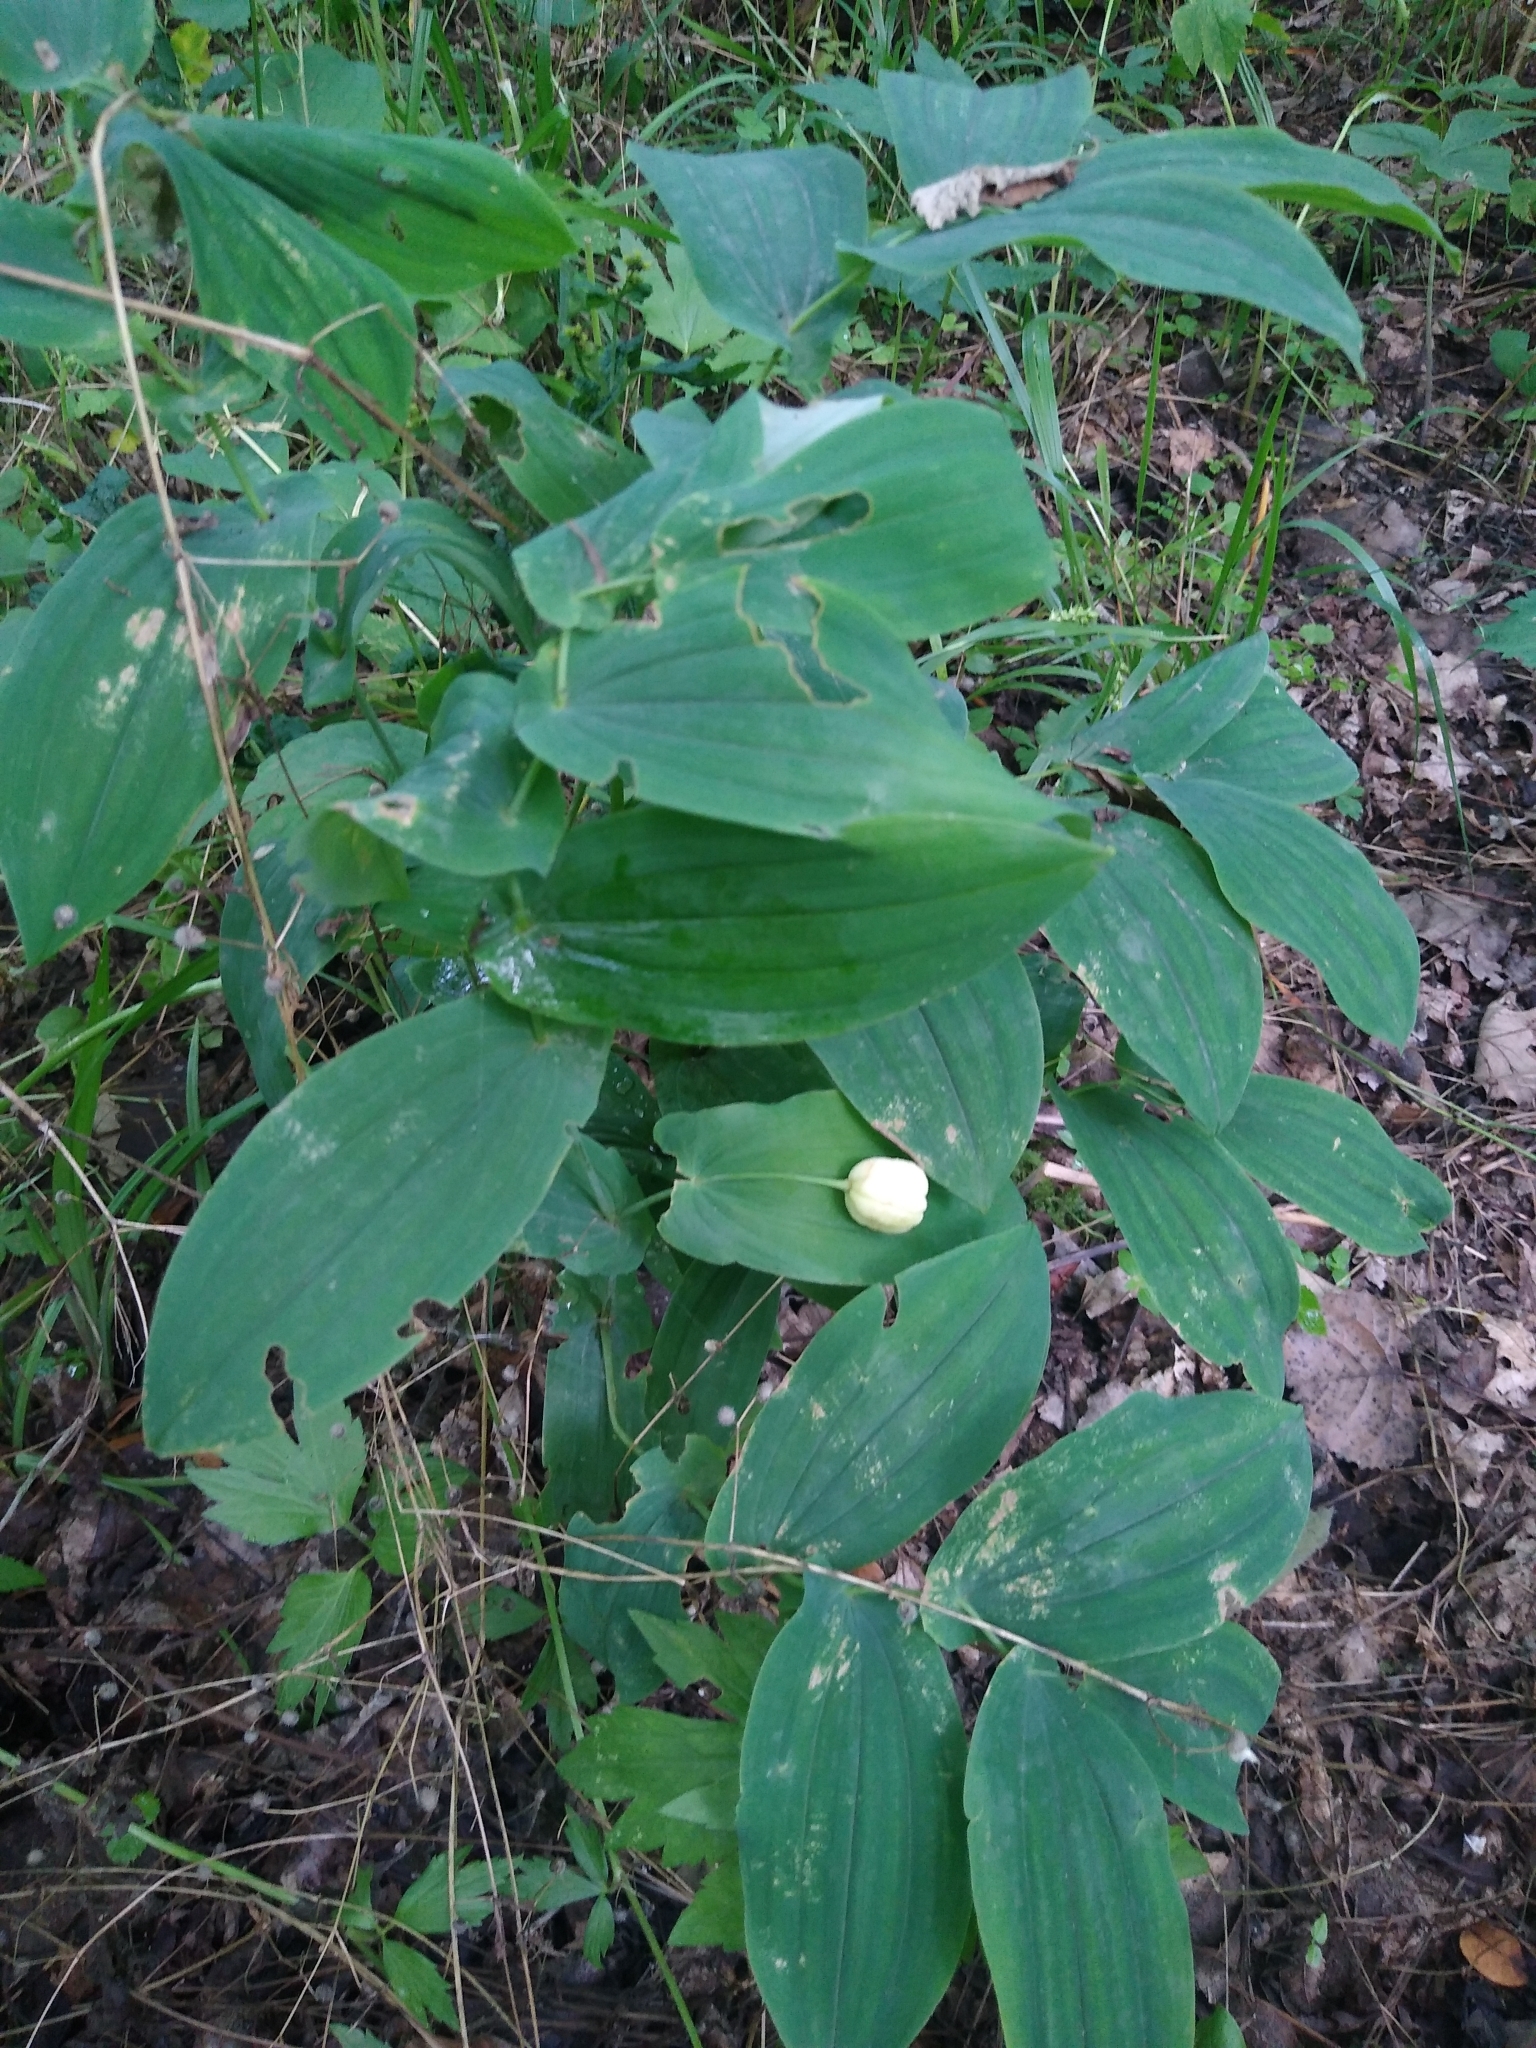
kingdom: Plantae
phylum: Tracheophyta
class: Liliopsida
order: Liliales
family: Colchicaceae
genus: Uvularia
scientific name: Uvularia grandiflora
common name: Bellwort
